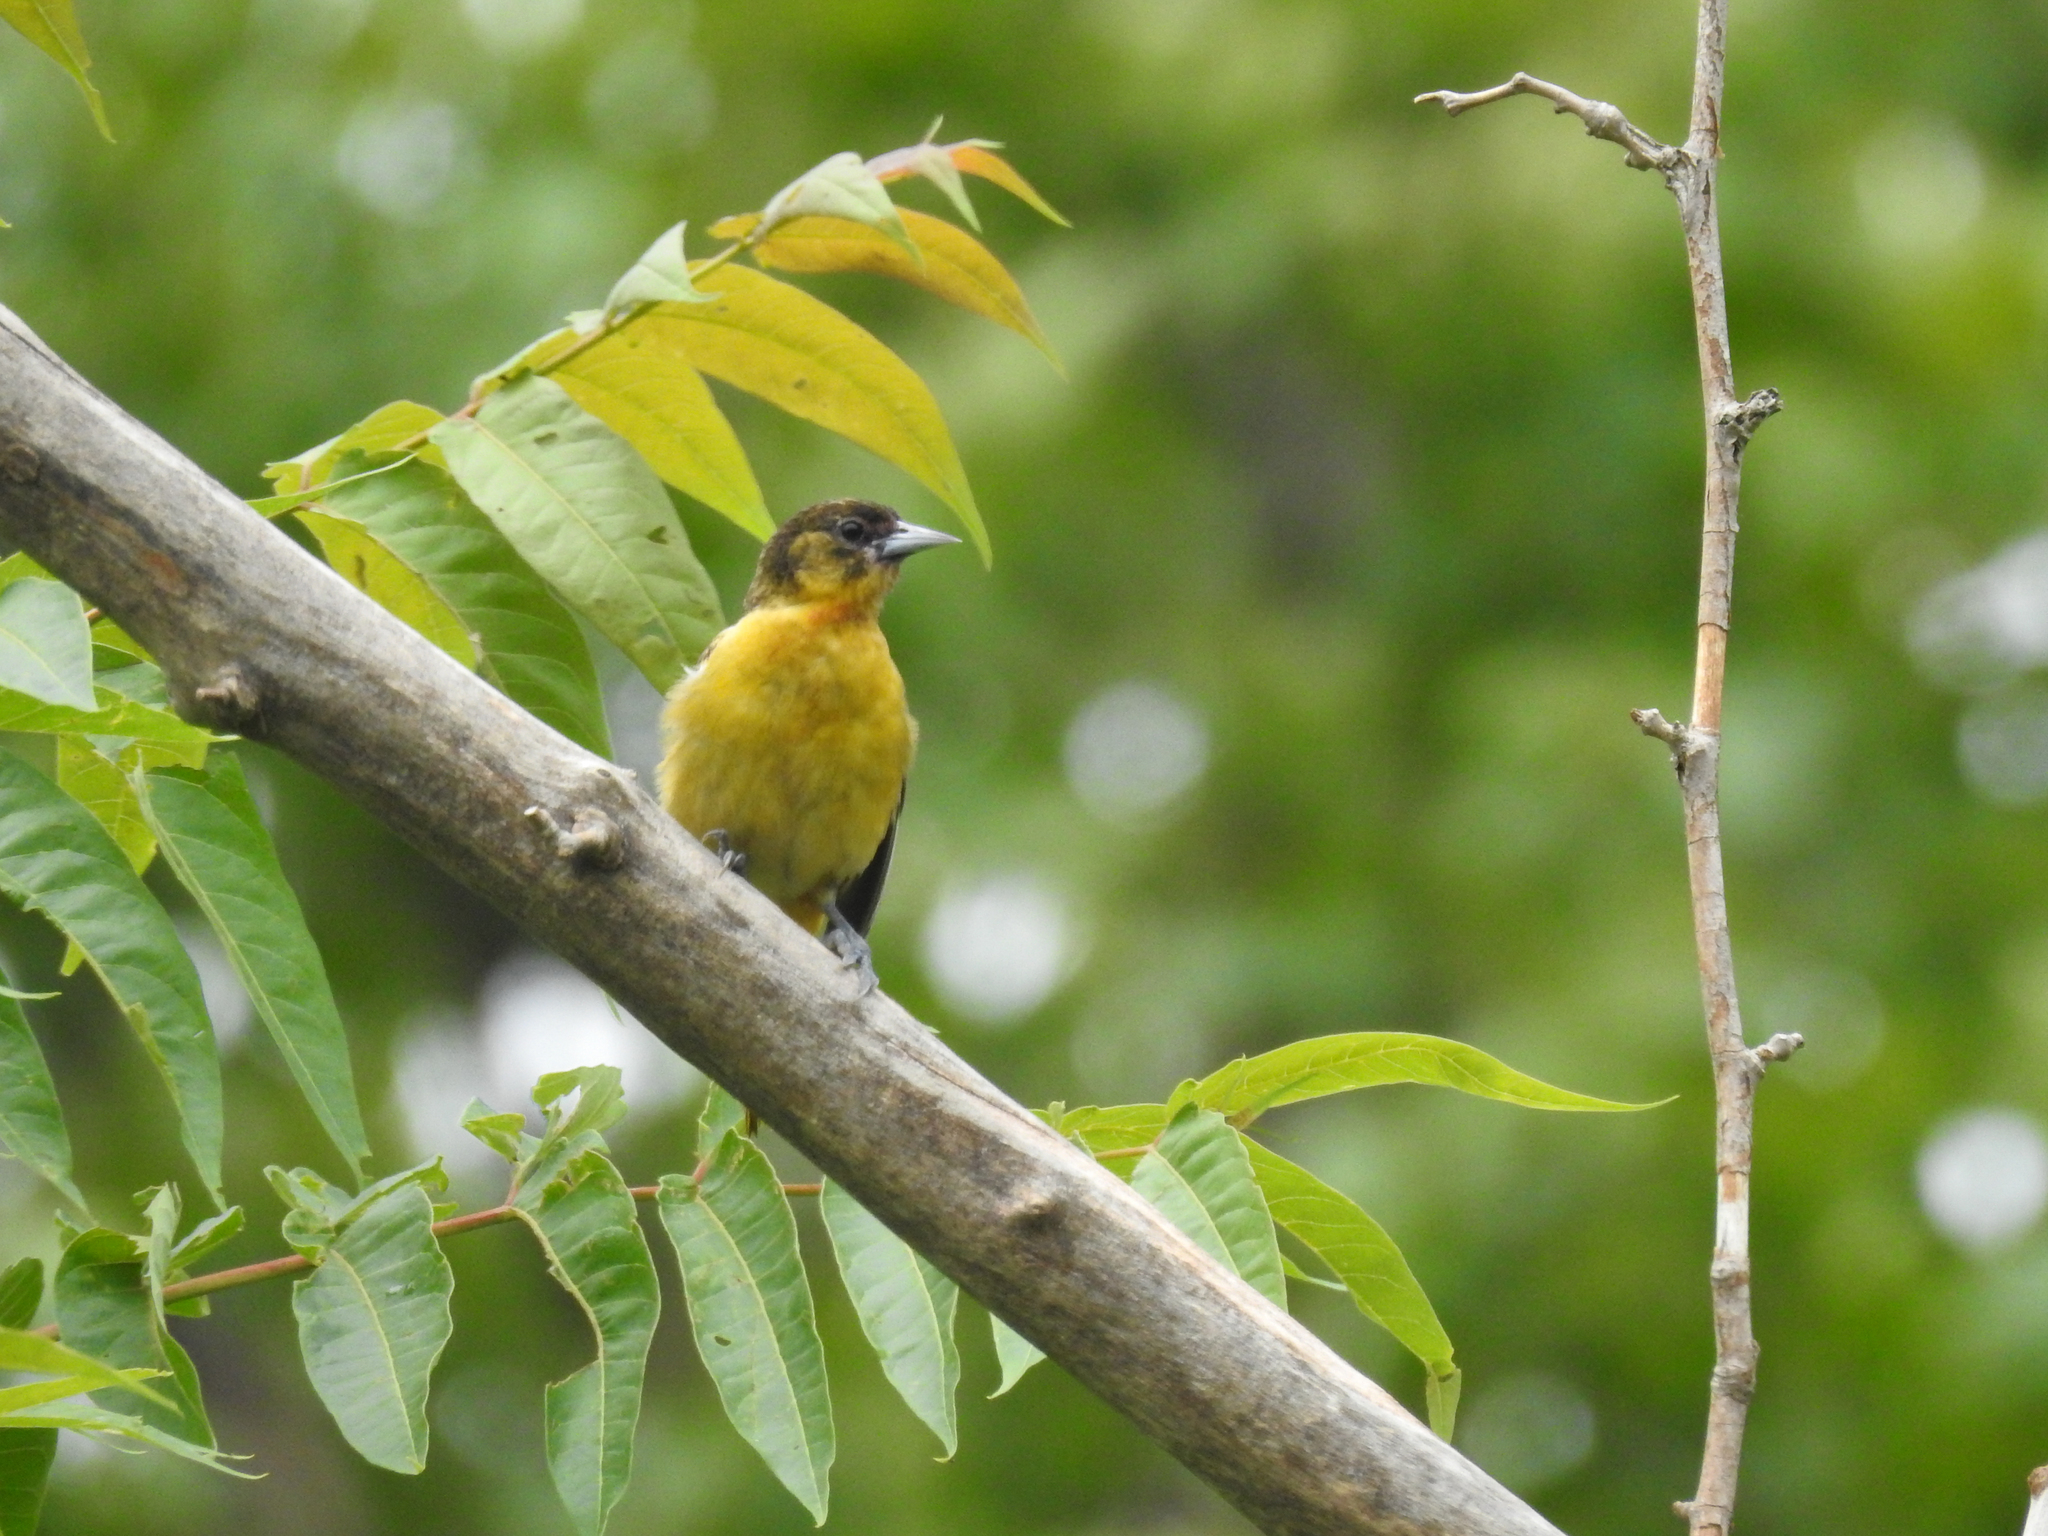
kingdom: Animalia
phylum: Chordata
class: Aves
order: Passeriformes
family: Icteridae
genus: Icterus
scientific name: Icterus galbula
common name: Baltimore oriole
